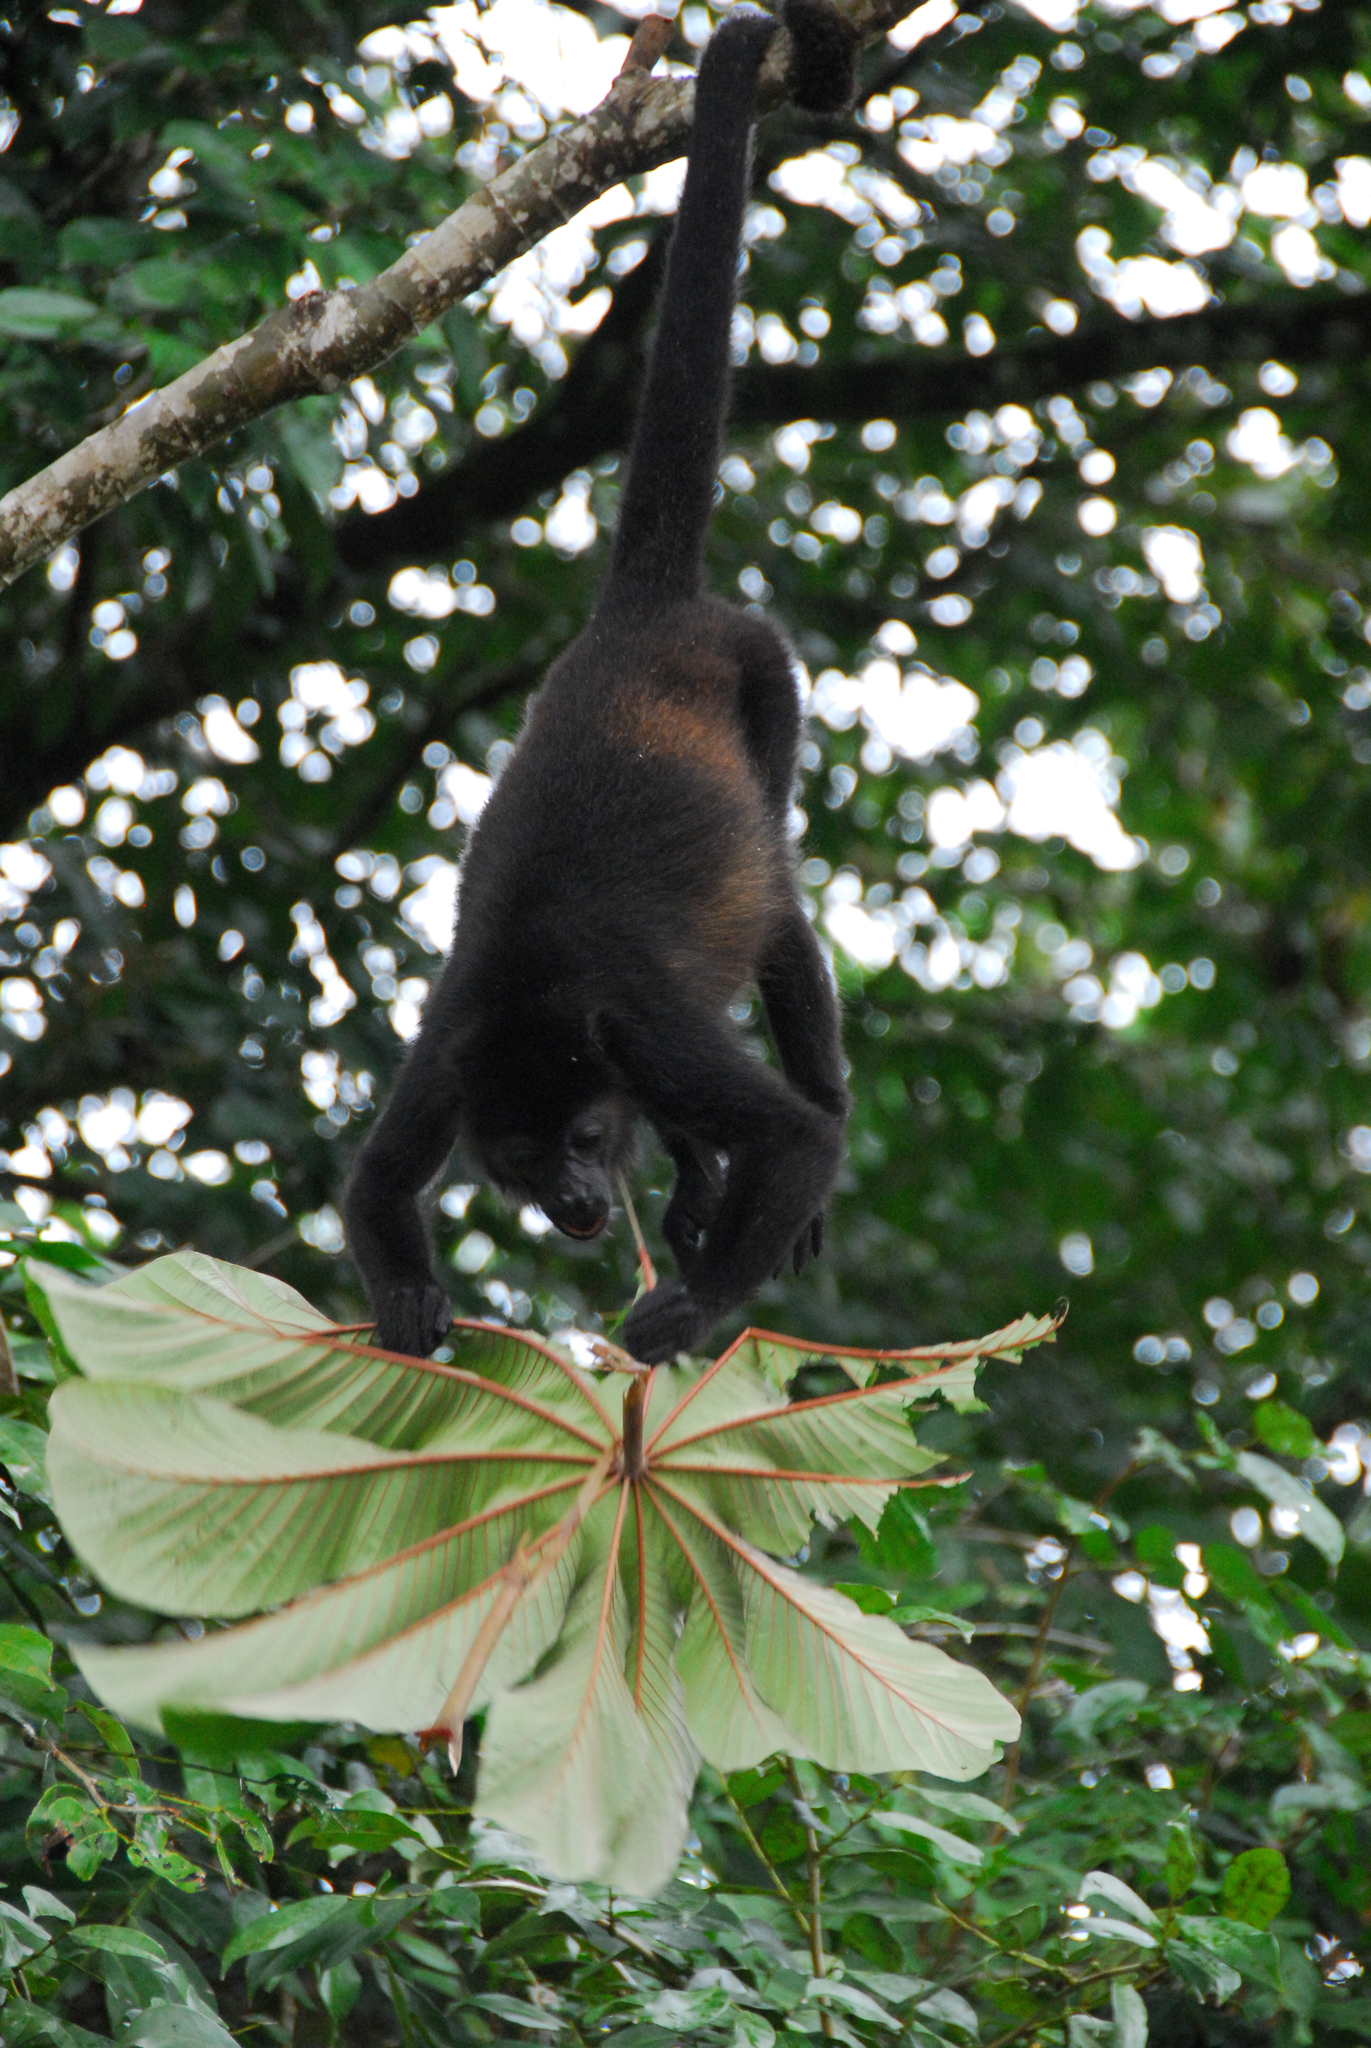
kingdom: Animalia
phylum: Chordata
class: Mammalia
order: Primates
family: Atelidae
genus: Alouatta
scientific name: Alouatta palliata
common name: Mantled howler
